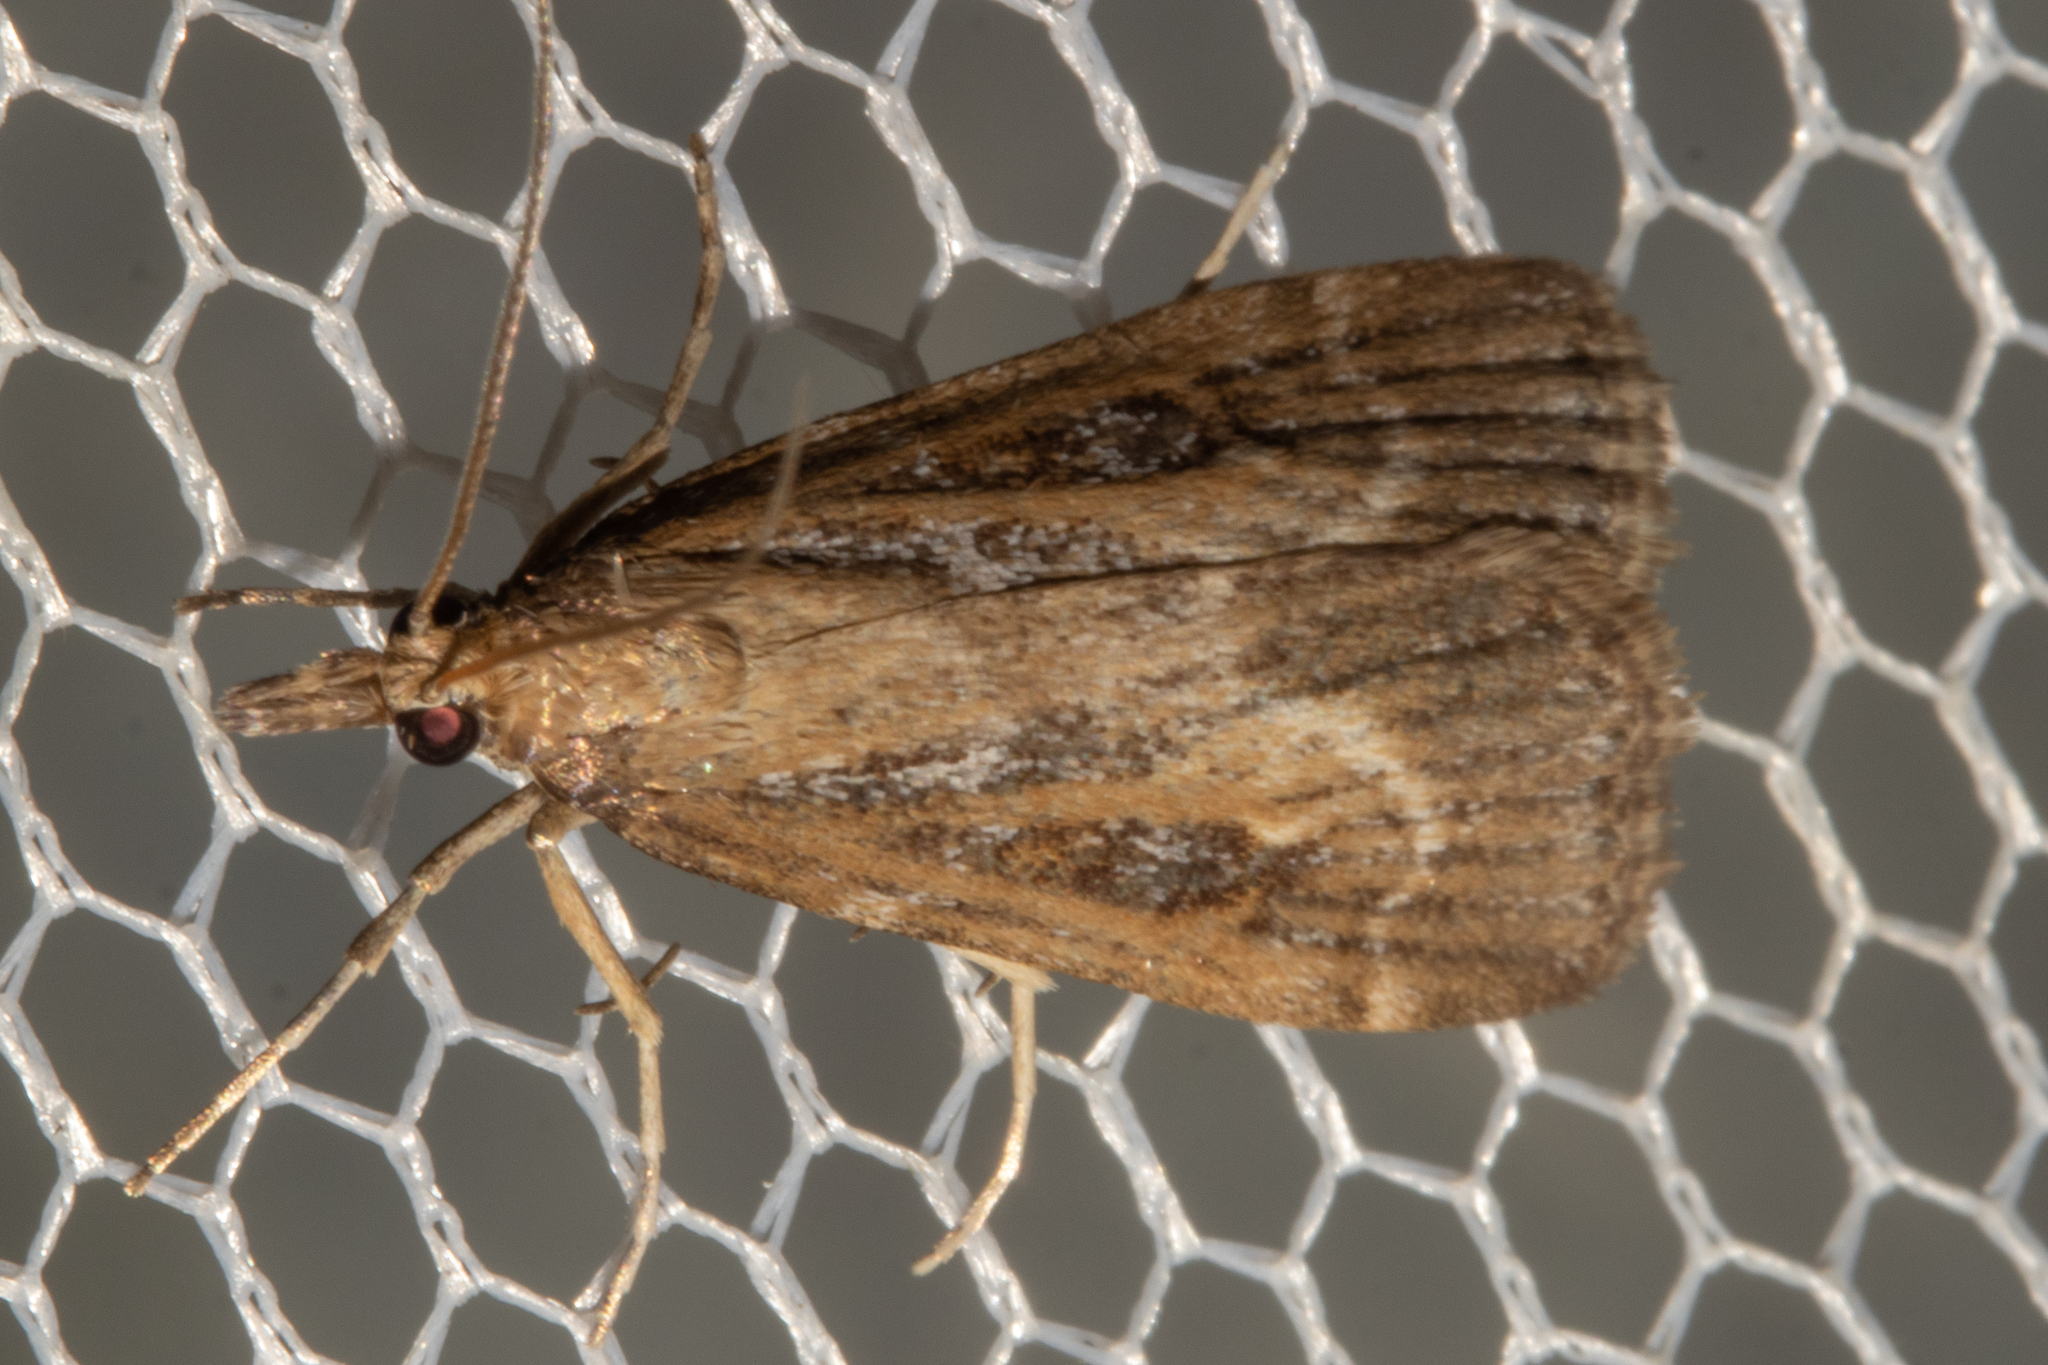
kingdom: Animalia
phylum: Arthropoda
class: Insecta
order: Lepidoptera
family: Crambidae
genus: Eudonia
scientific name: Eudonia octophora
